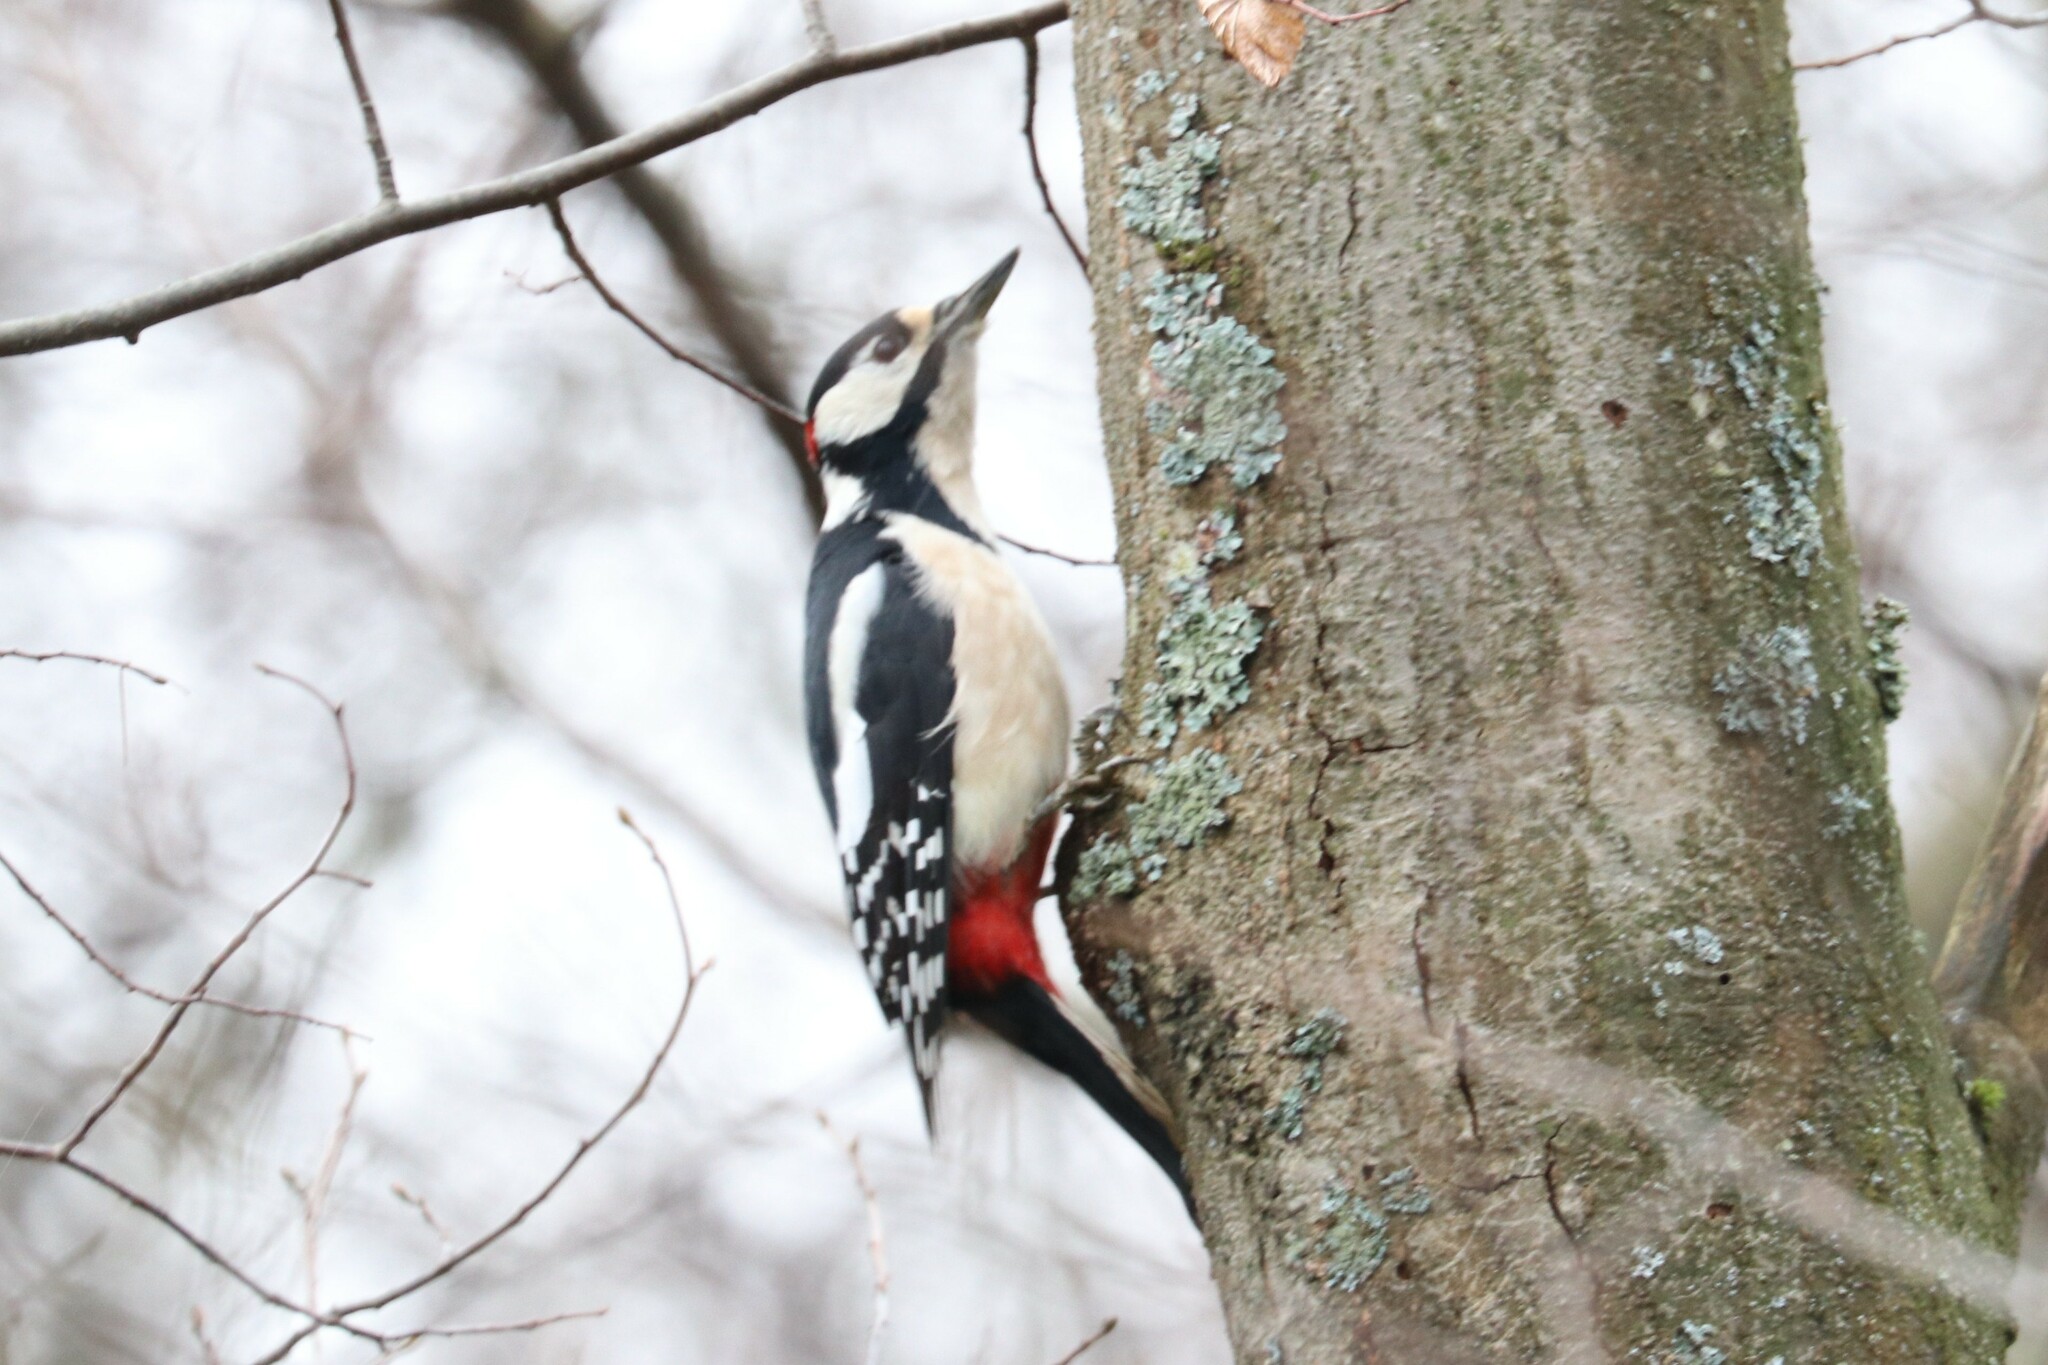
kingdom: Animalia
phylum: Chordata
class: Aves
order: Piciformes
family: Picidae
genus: Dendrocopos
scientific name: Dendrocopos major
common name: Great spotted woodpecker
